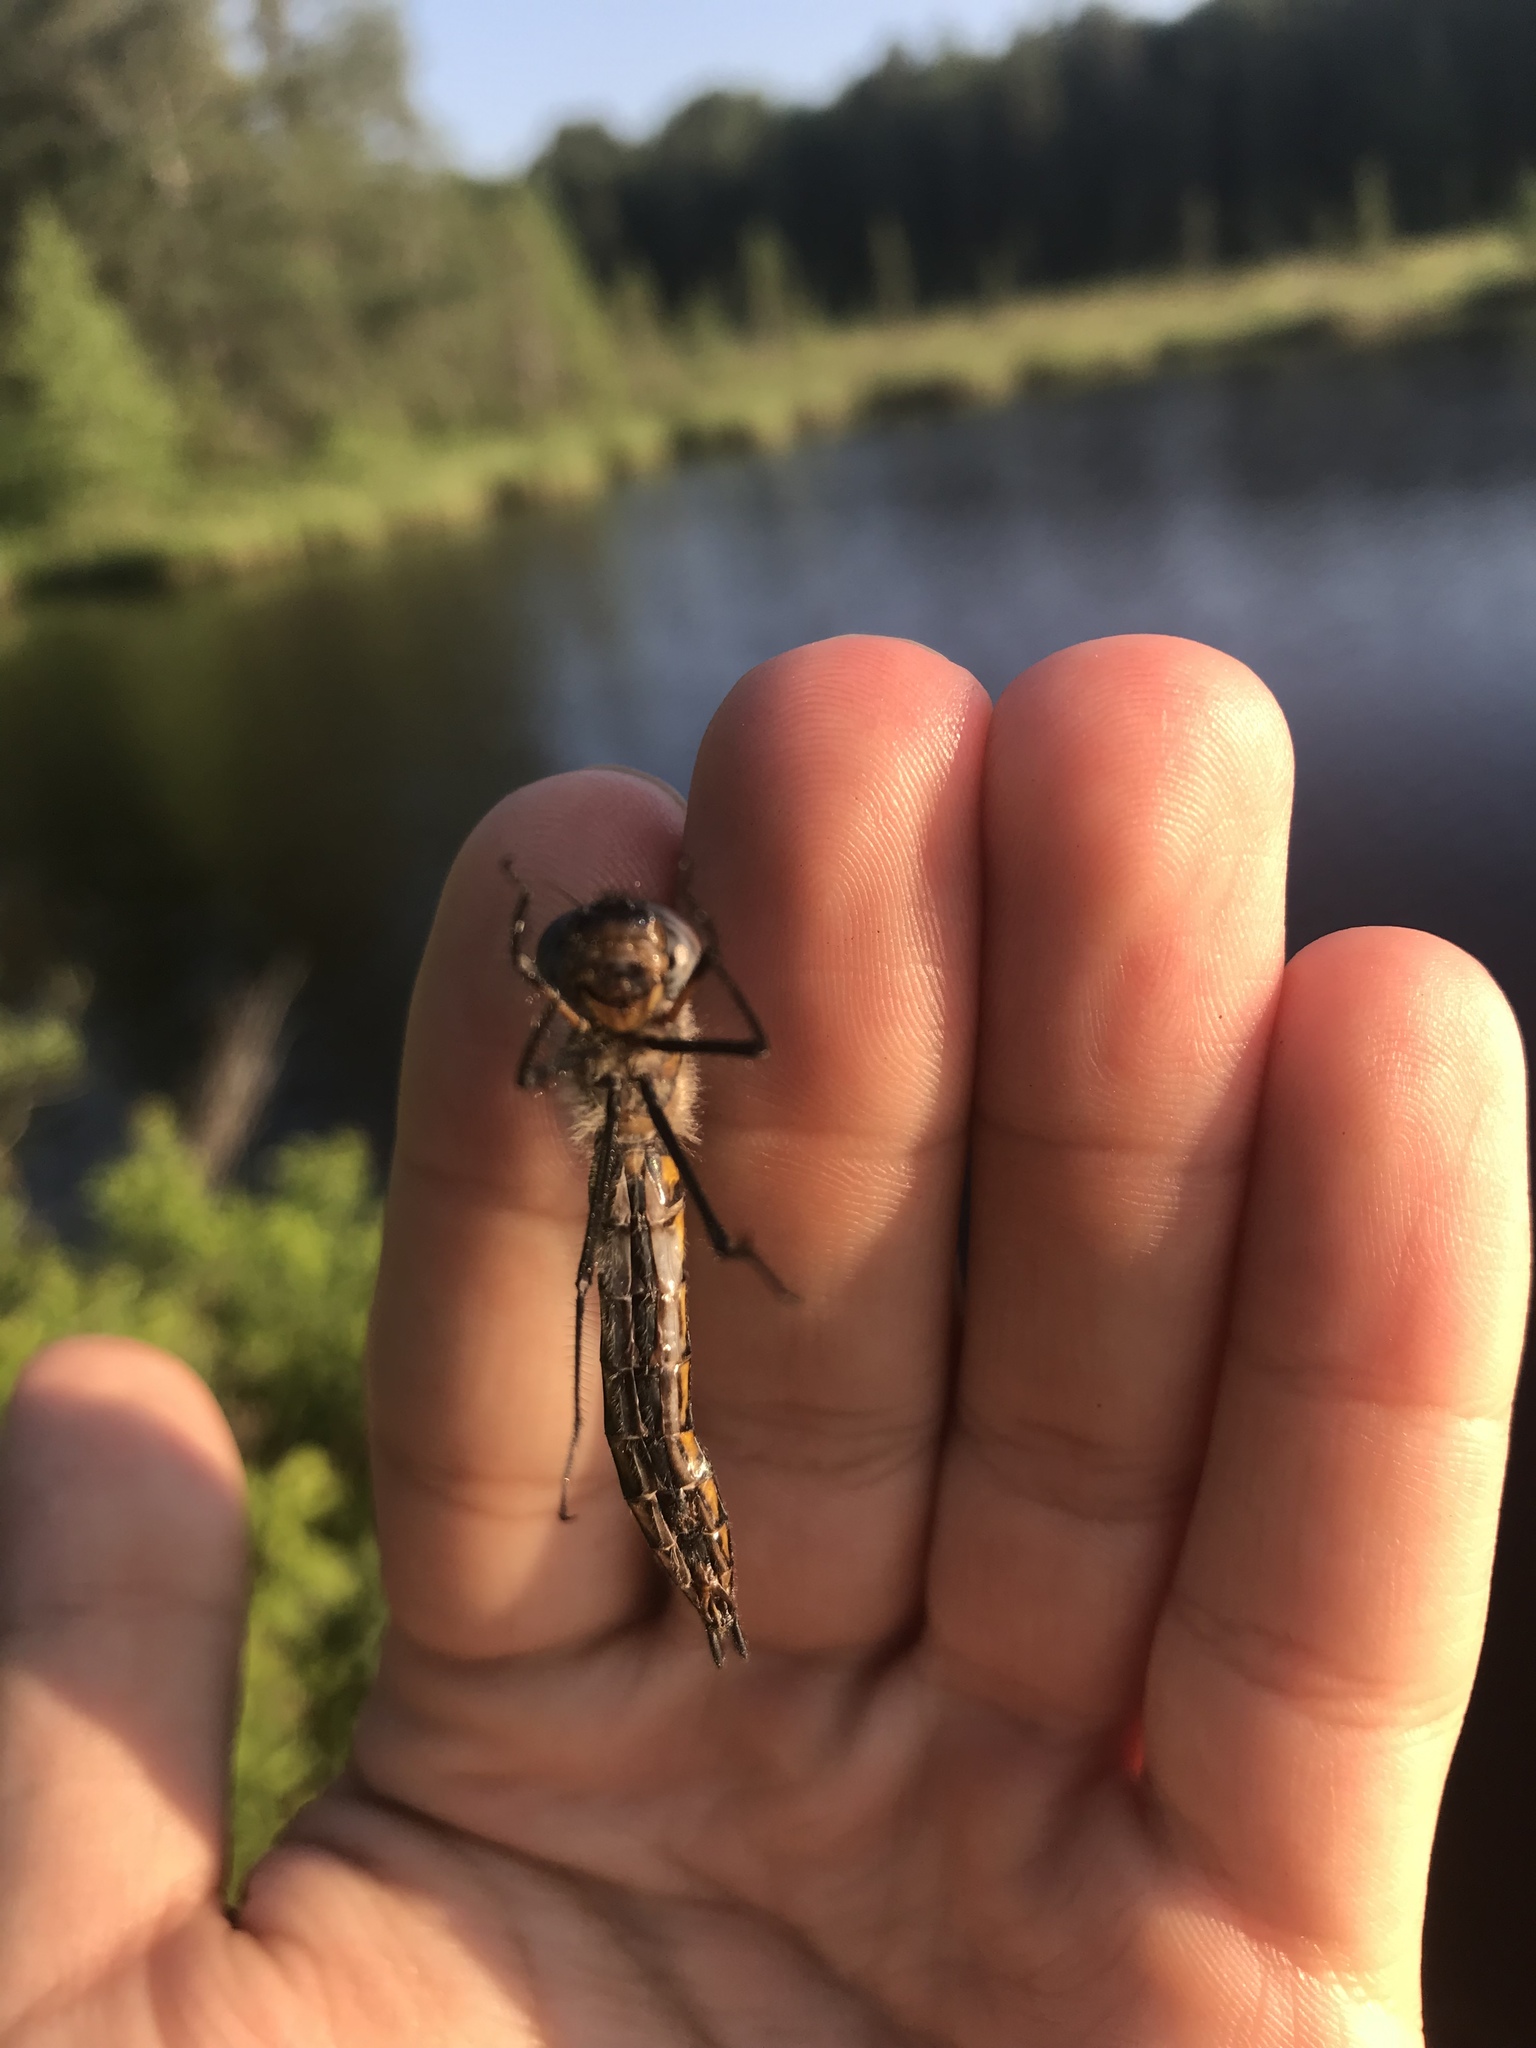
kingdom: Animalia
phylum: Arthropoda
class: Insecta
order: Odonata
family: Corduliidae
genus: Epitheca
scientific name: Epitheca spinigera
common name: Spiny baskettail
